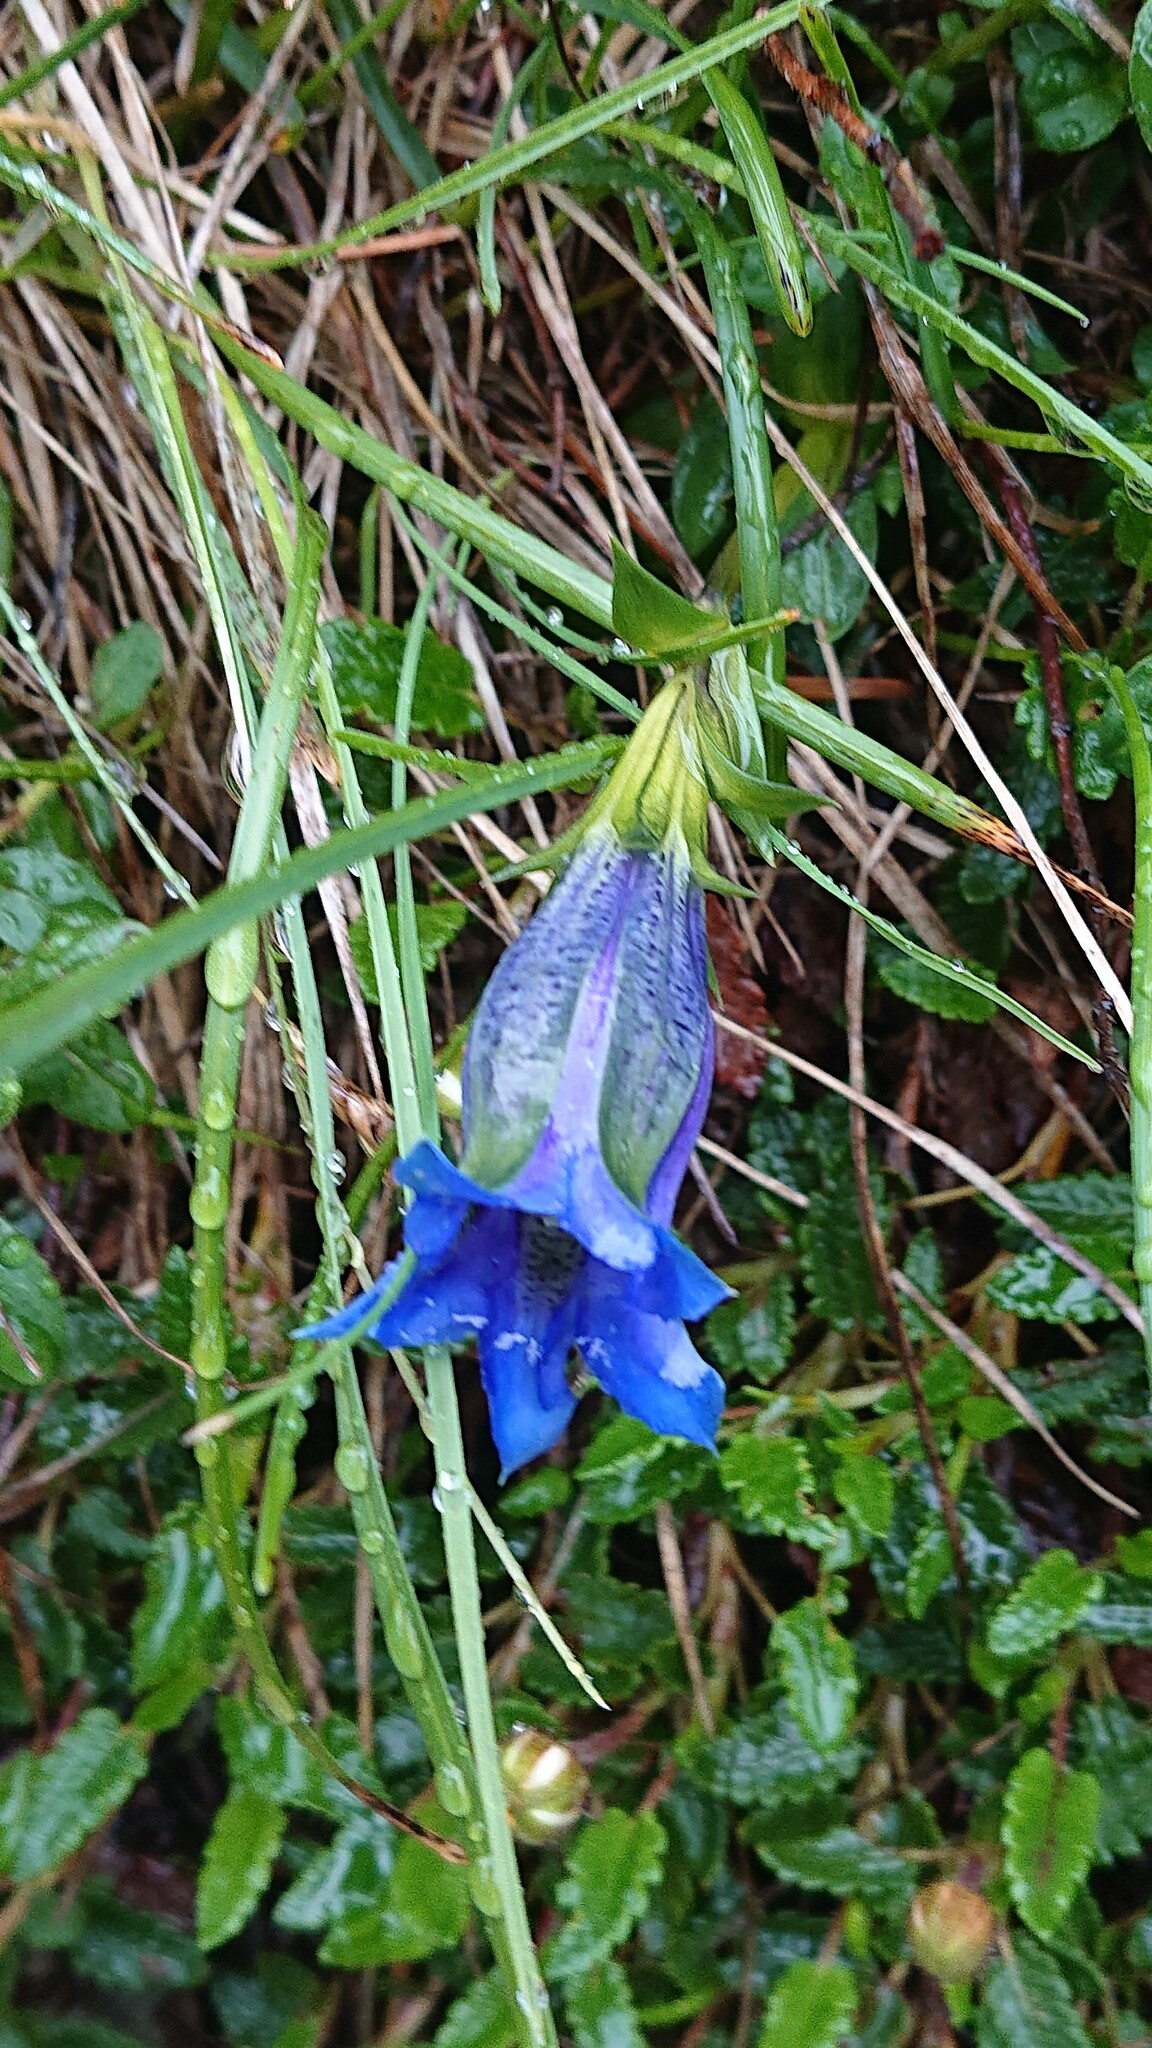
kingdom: Plantae
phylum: Tracheophyta
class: Magnoliopsida
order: Gentianales
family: Gentianaceae
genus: Gentiana
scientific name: Gentiana clusii
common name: Trumpet gentian
